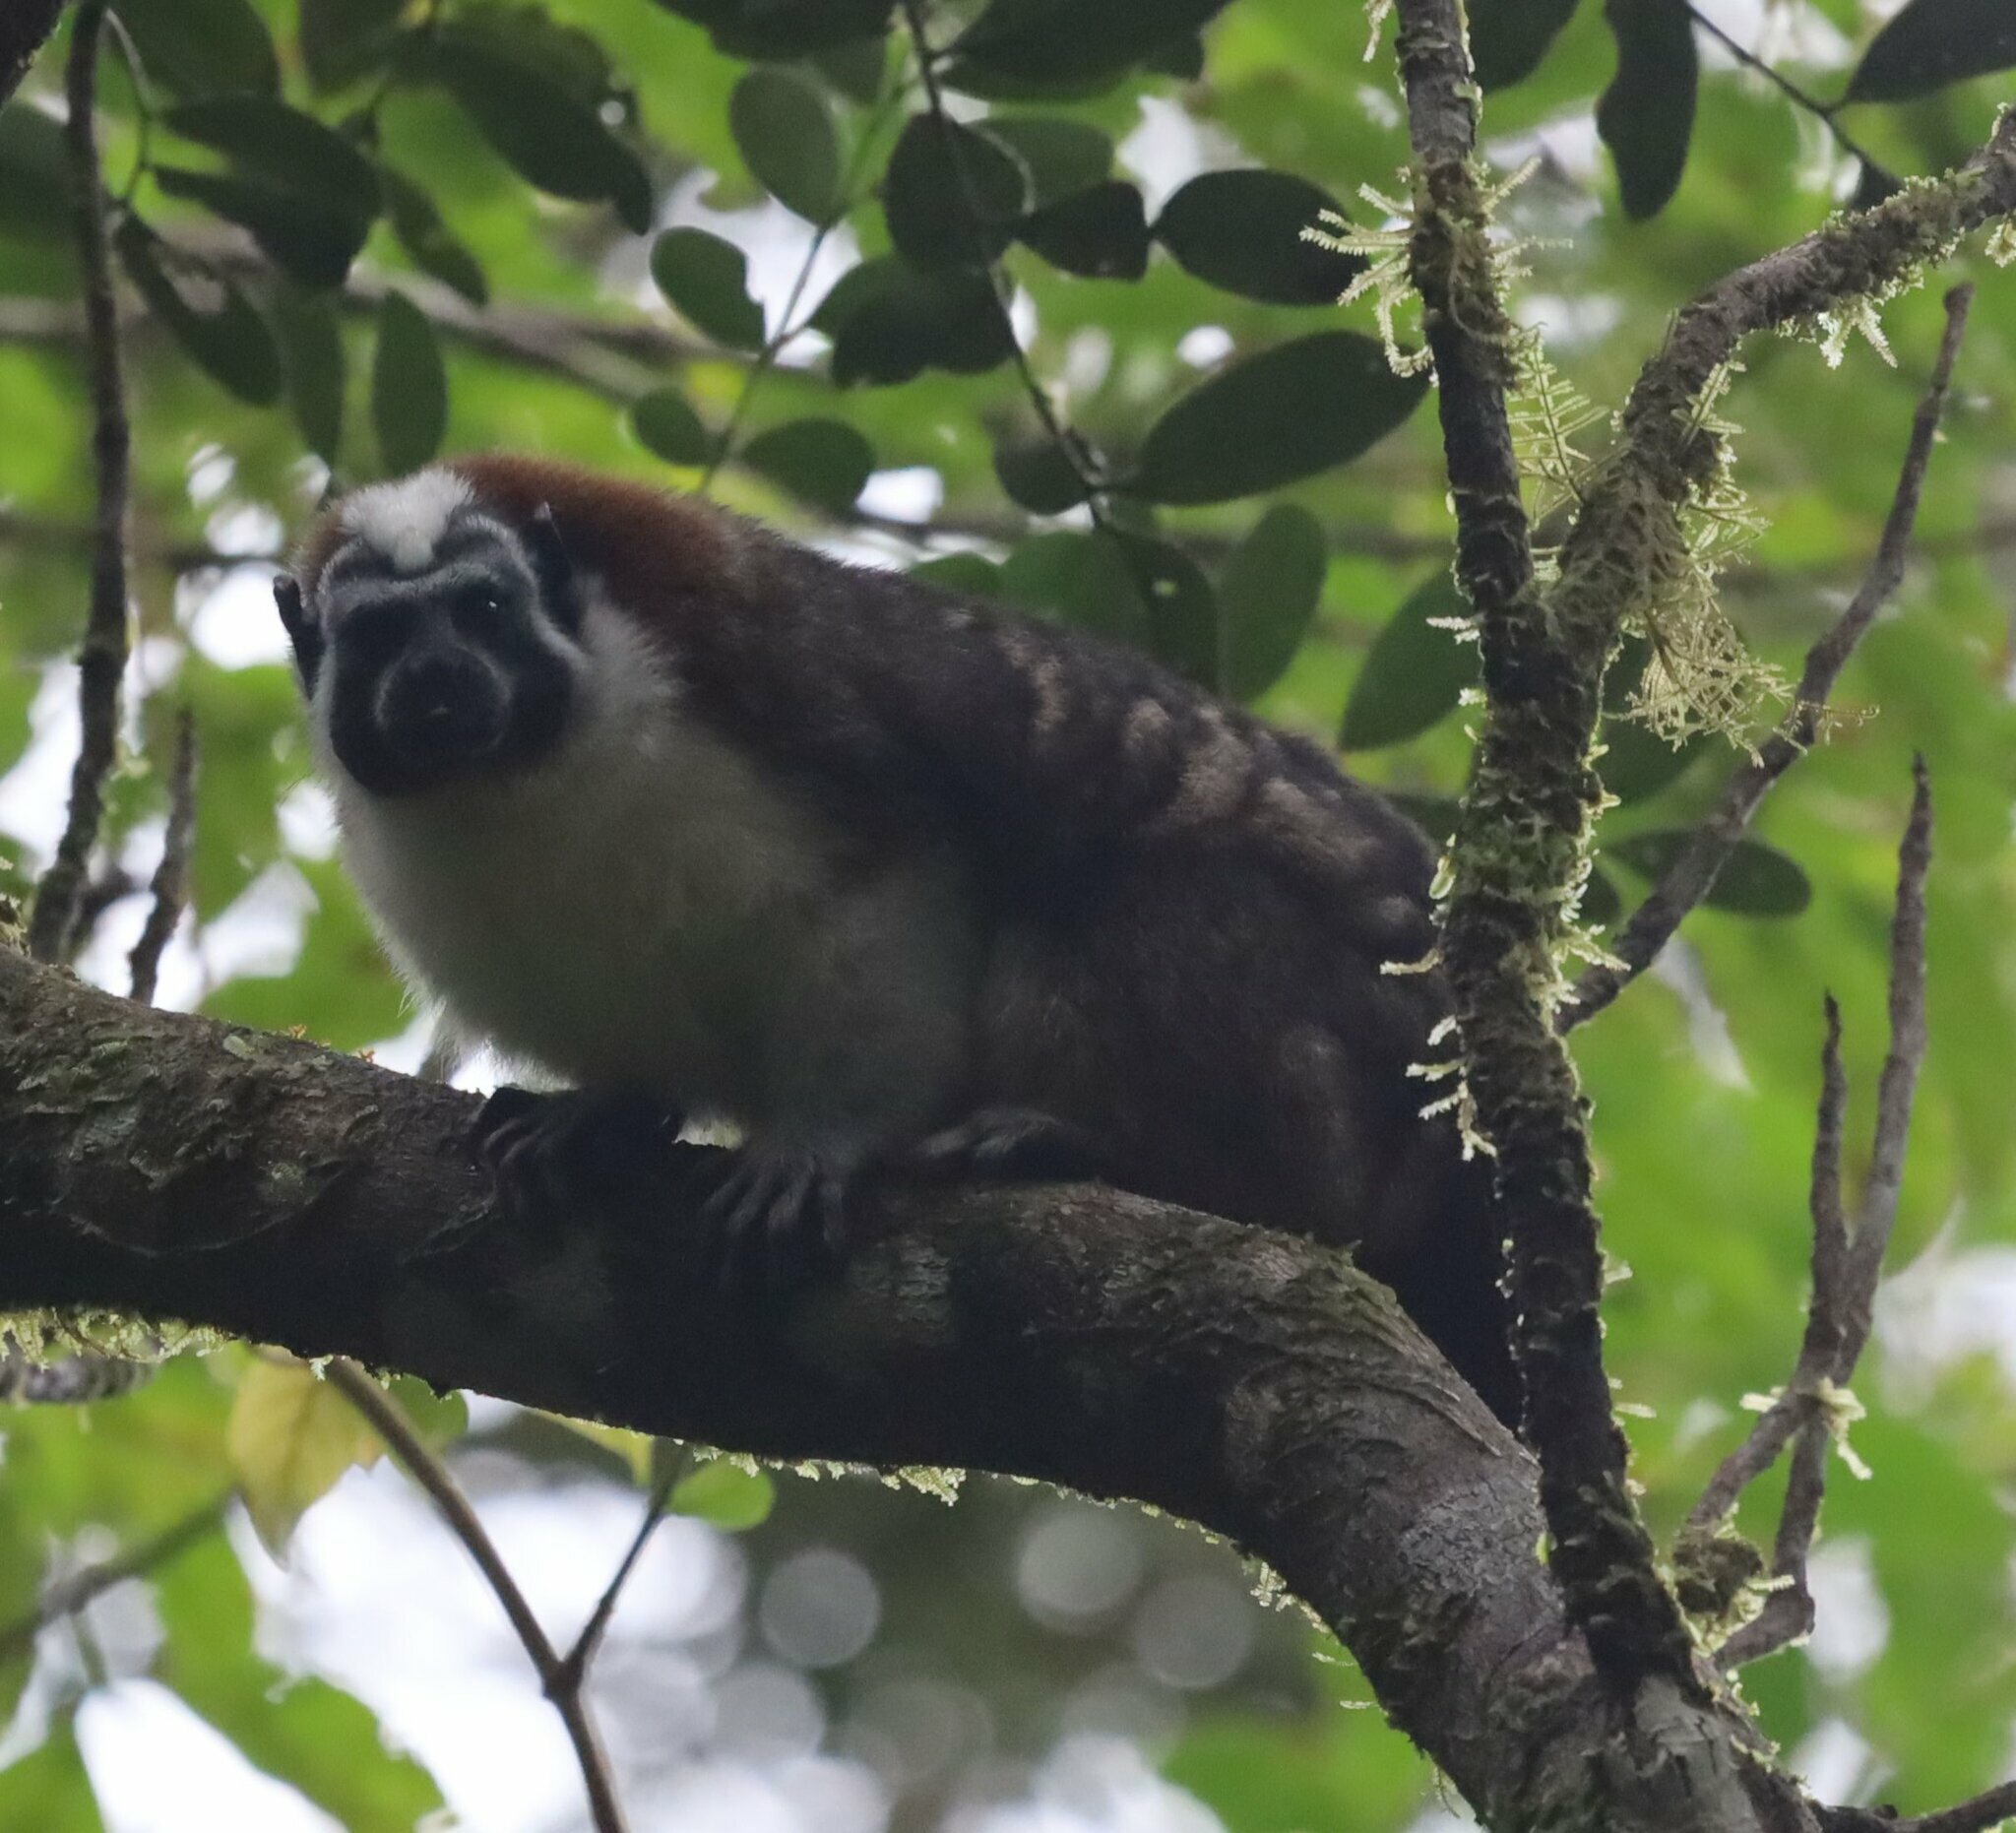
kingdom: Animalia
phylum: Chordata
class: Mammalia
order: Primates
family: Callitrichidae
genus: Saguinus
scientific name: Saguinus geoffroyi
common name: Geoffroy s tamarin
